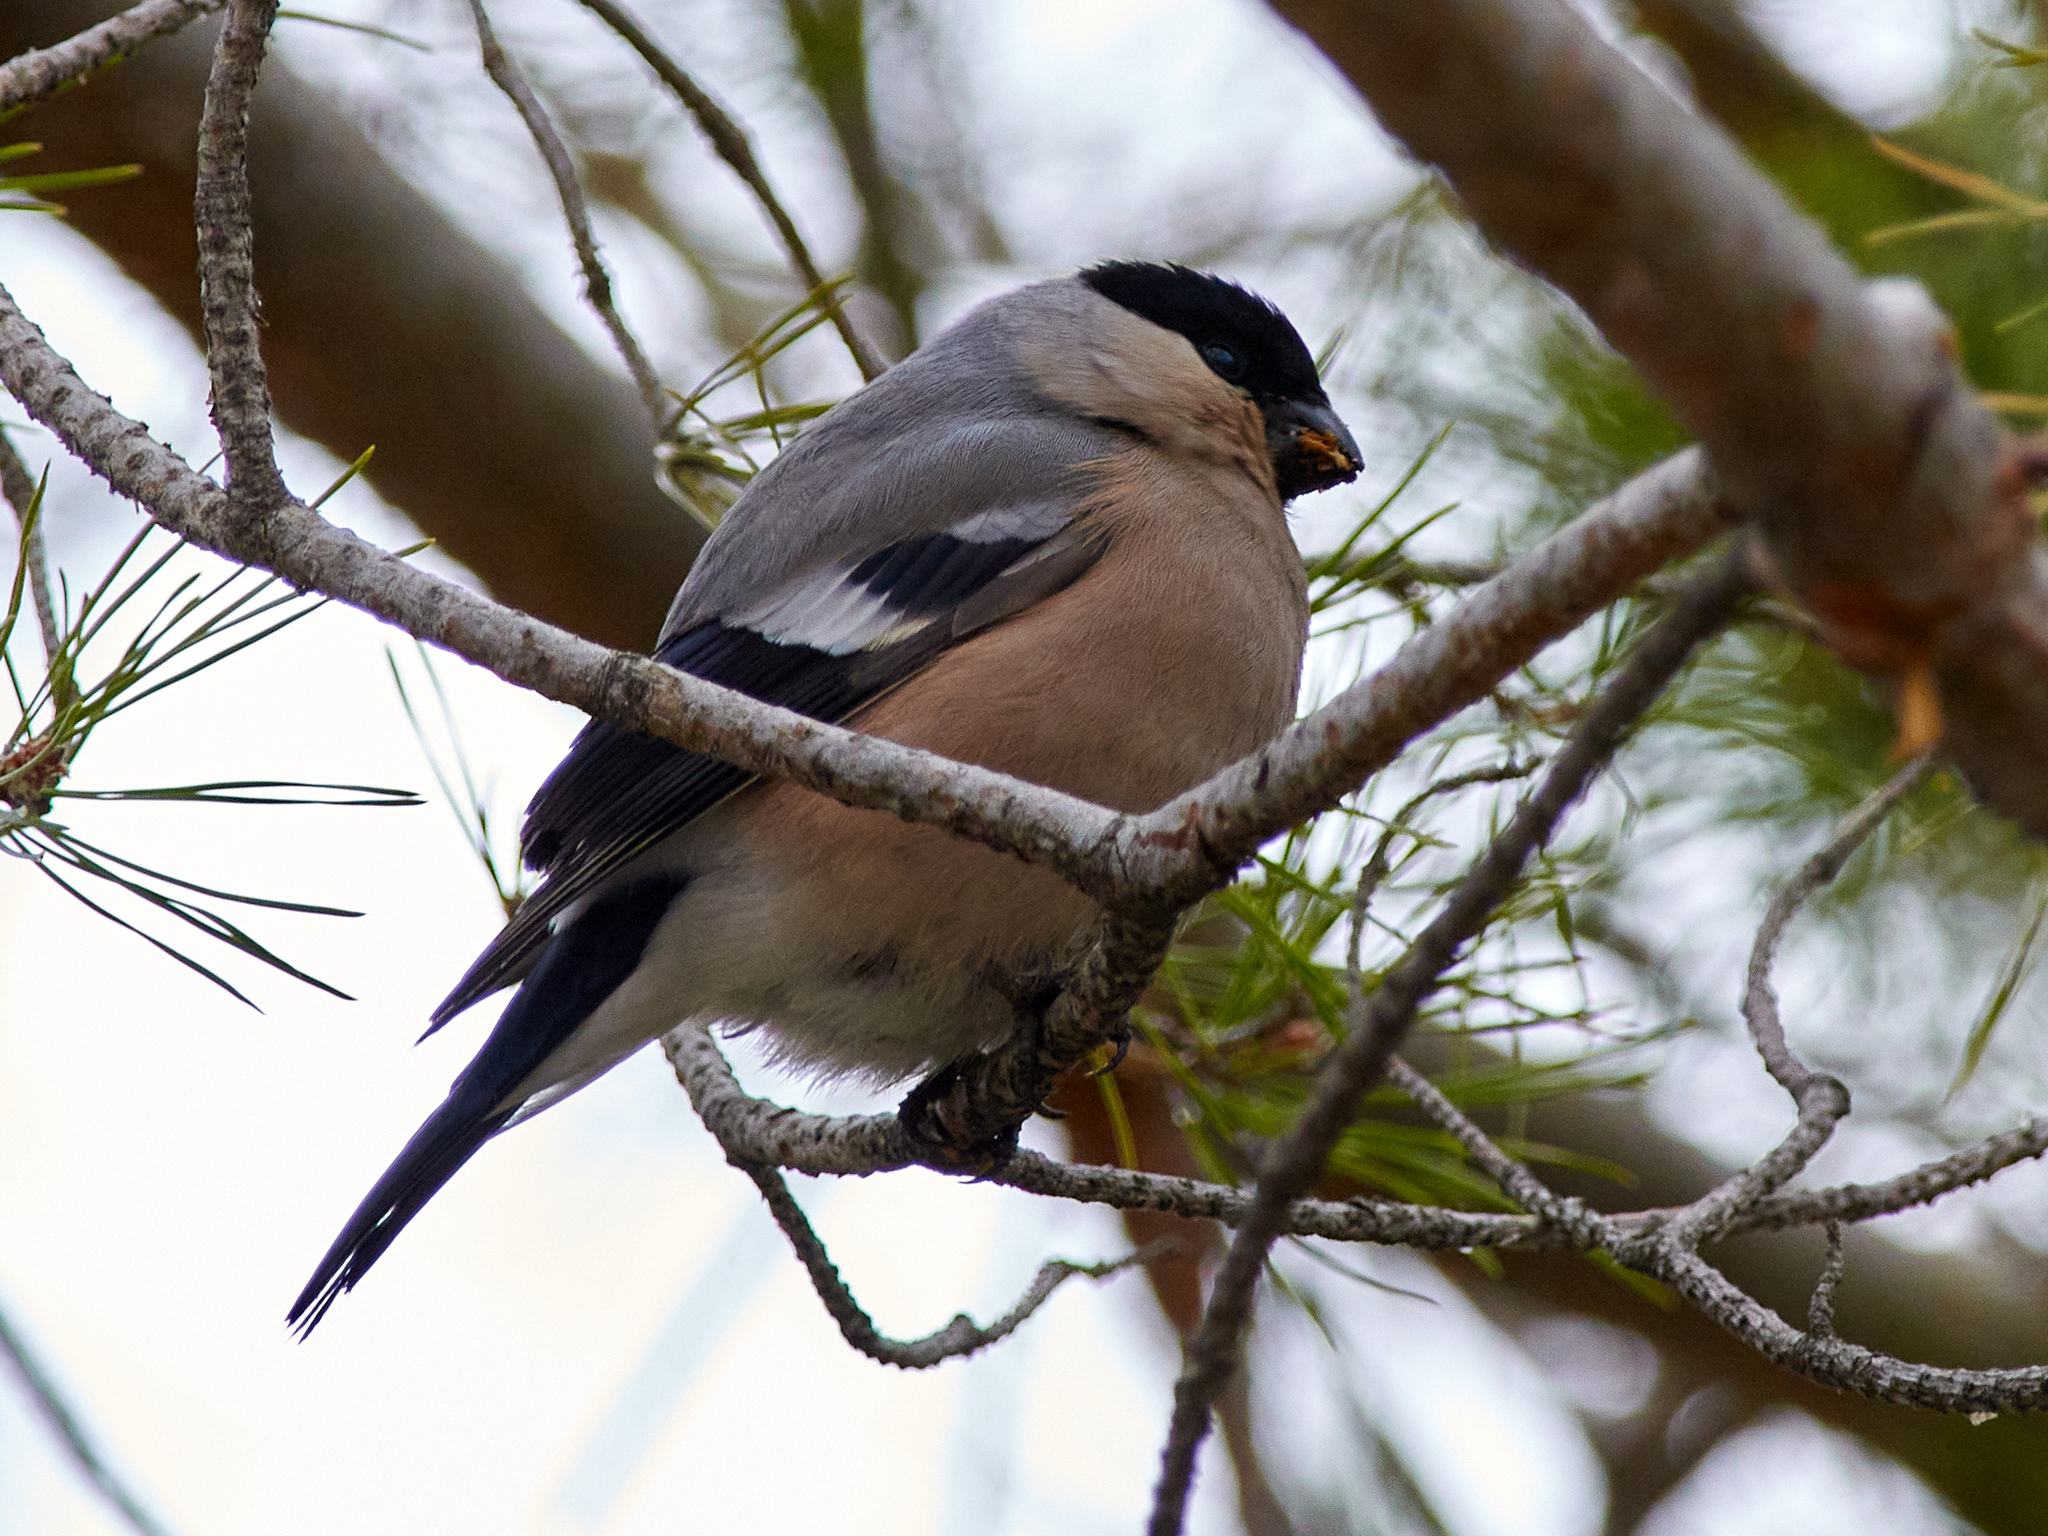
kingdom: Animalia
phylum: Chordata
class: Aves
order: Passeriformes
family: Fringillidae
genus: Pyrrhula
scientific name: Pyrrhula pyrrhula
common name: Eurasian bullfinch
